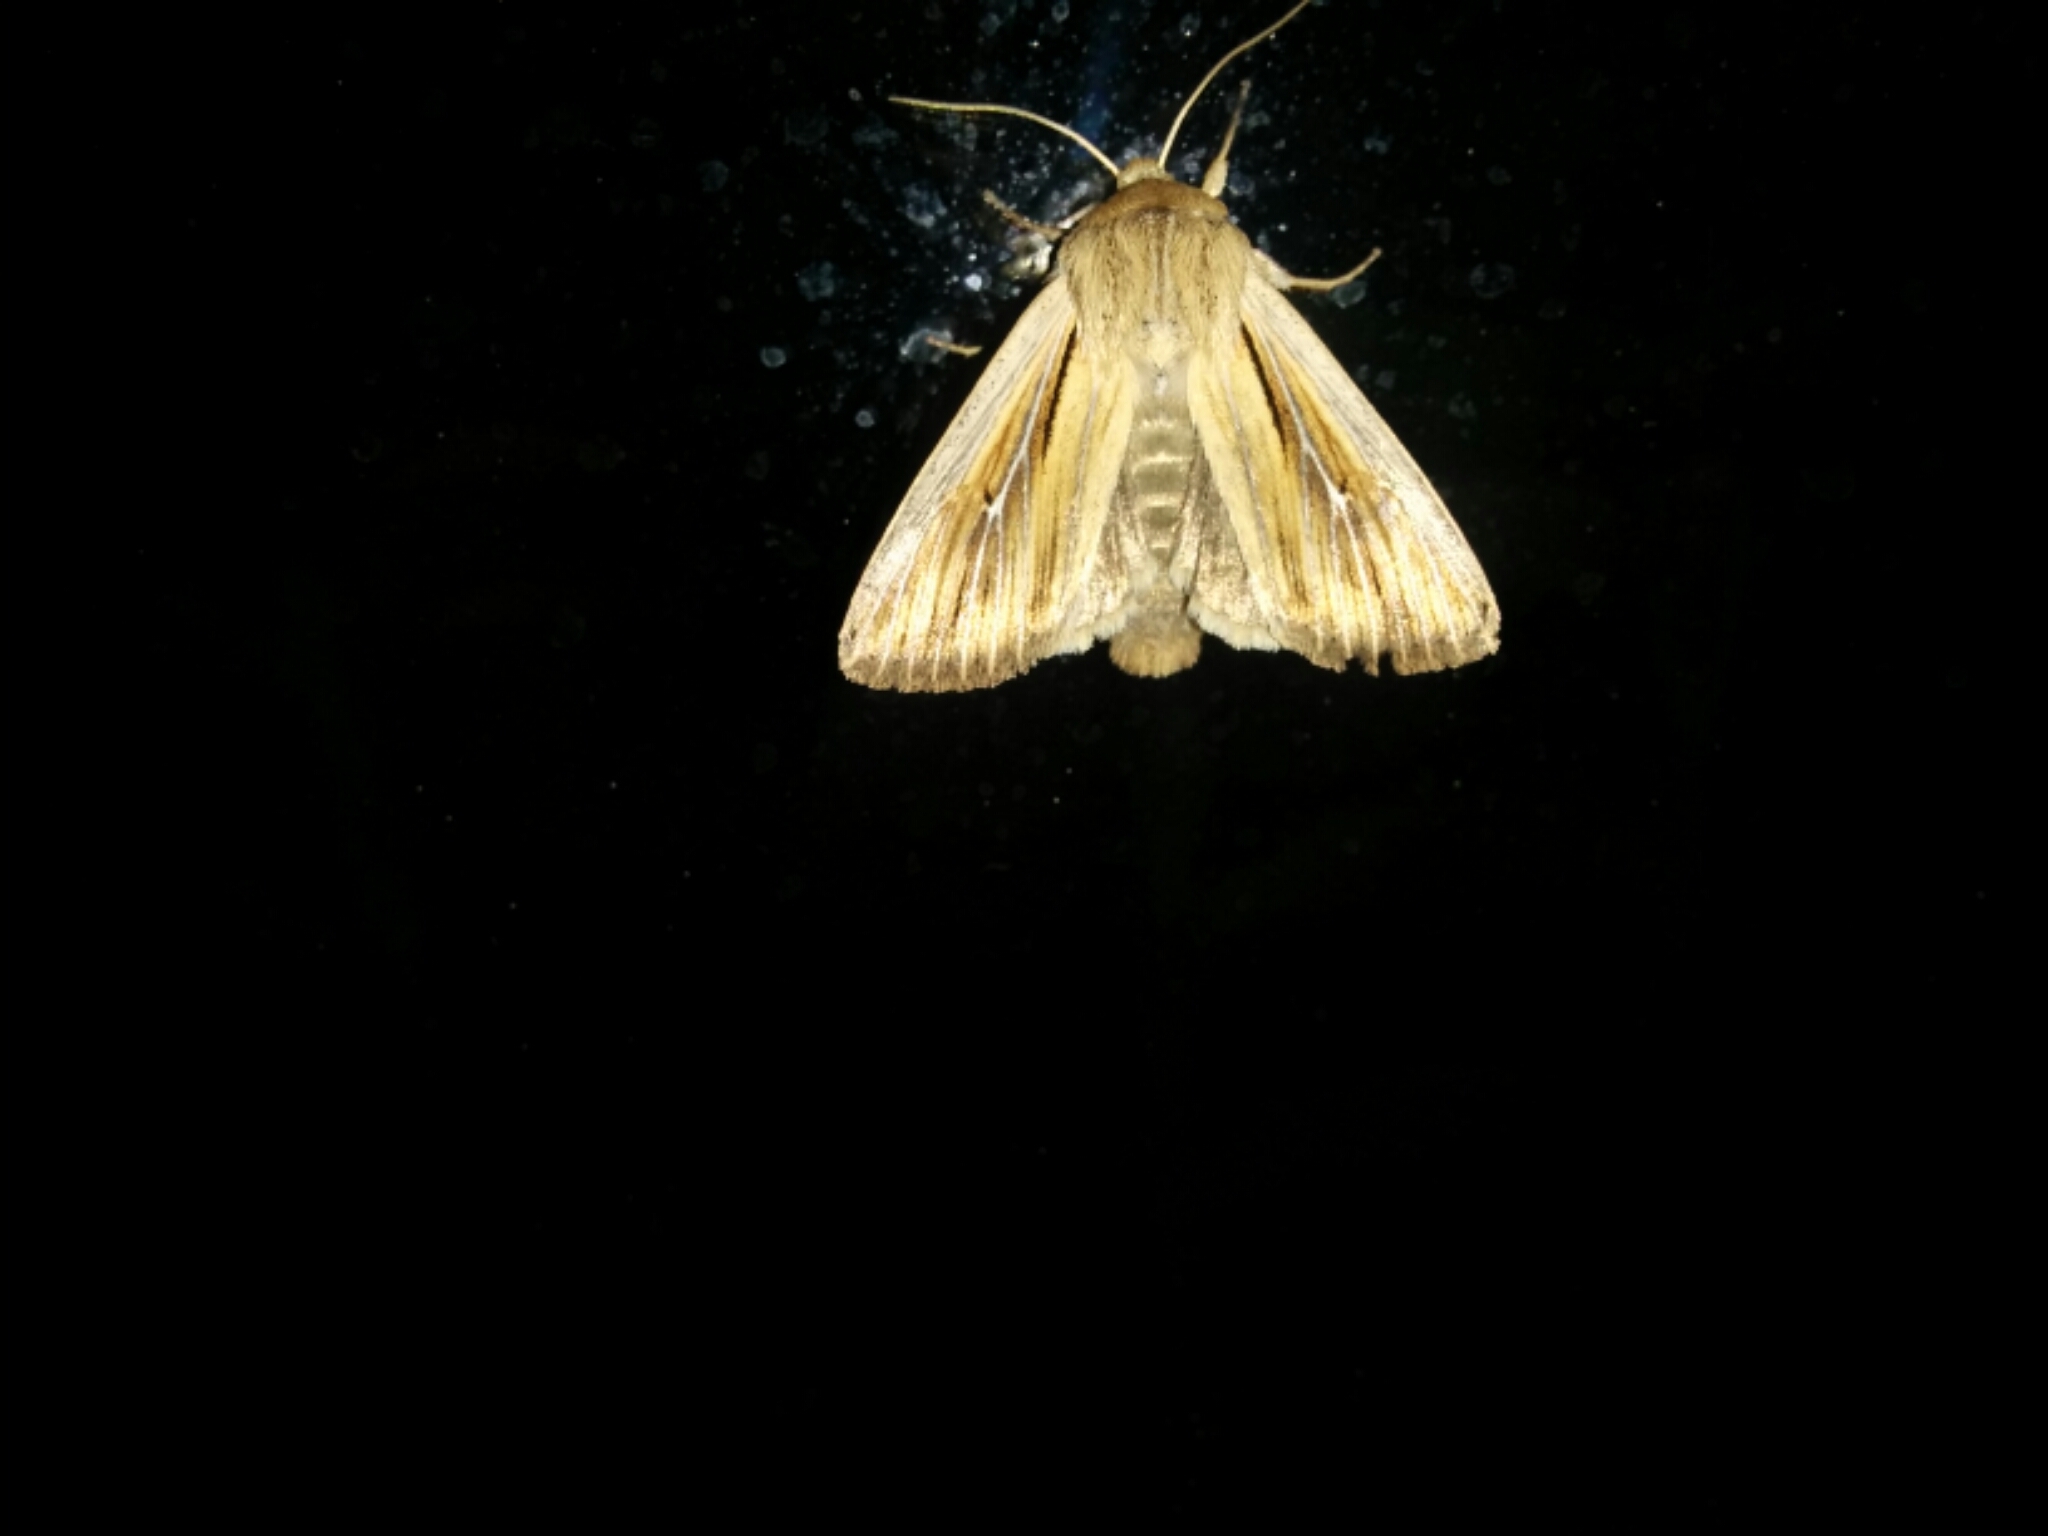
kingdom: Animalia
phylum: Arthropoda
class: Insecta
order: Lepidoptera
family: Noctuidae
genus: Leucania
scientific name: Leucania comma
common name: Shoulder-striped wainscot
